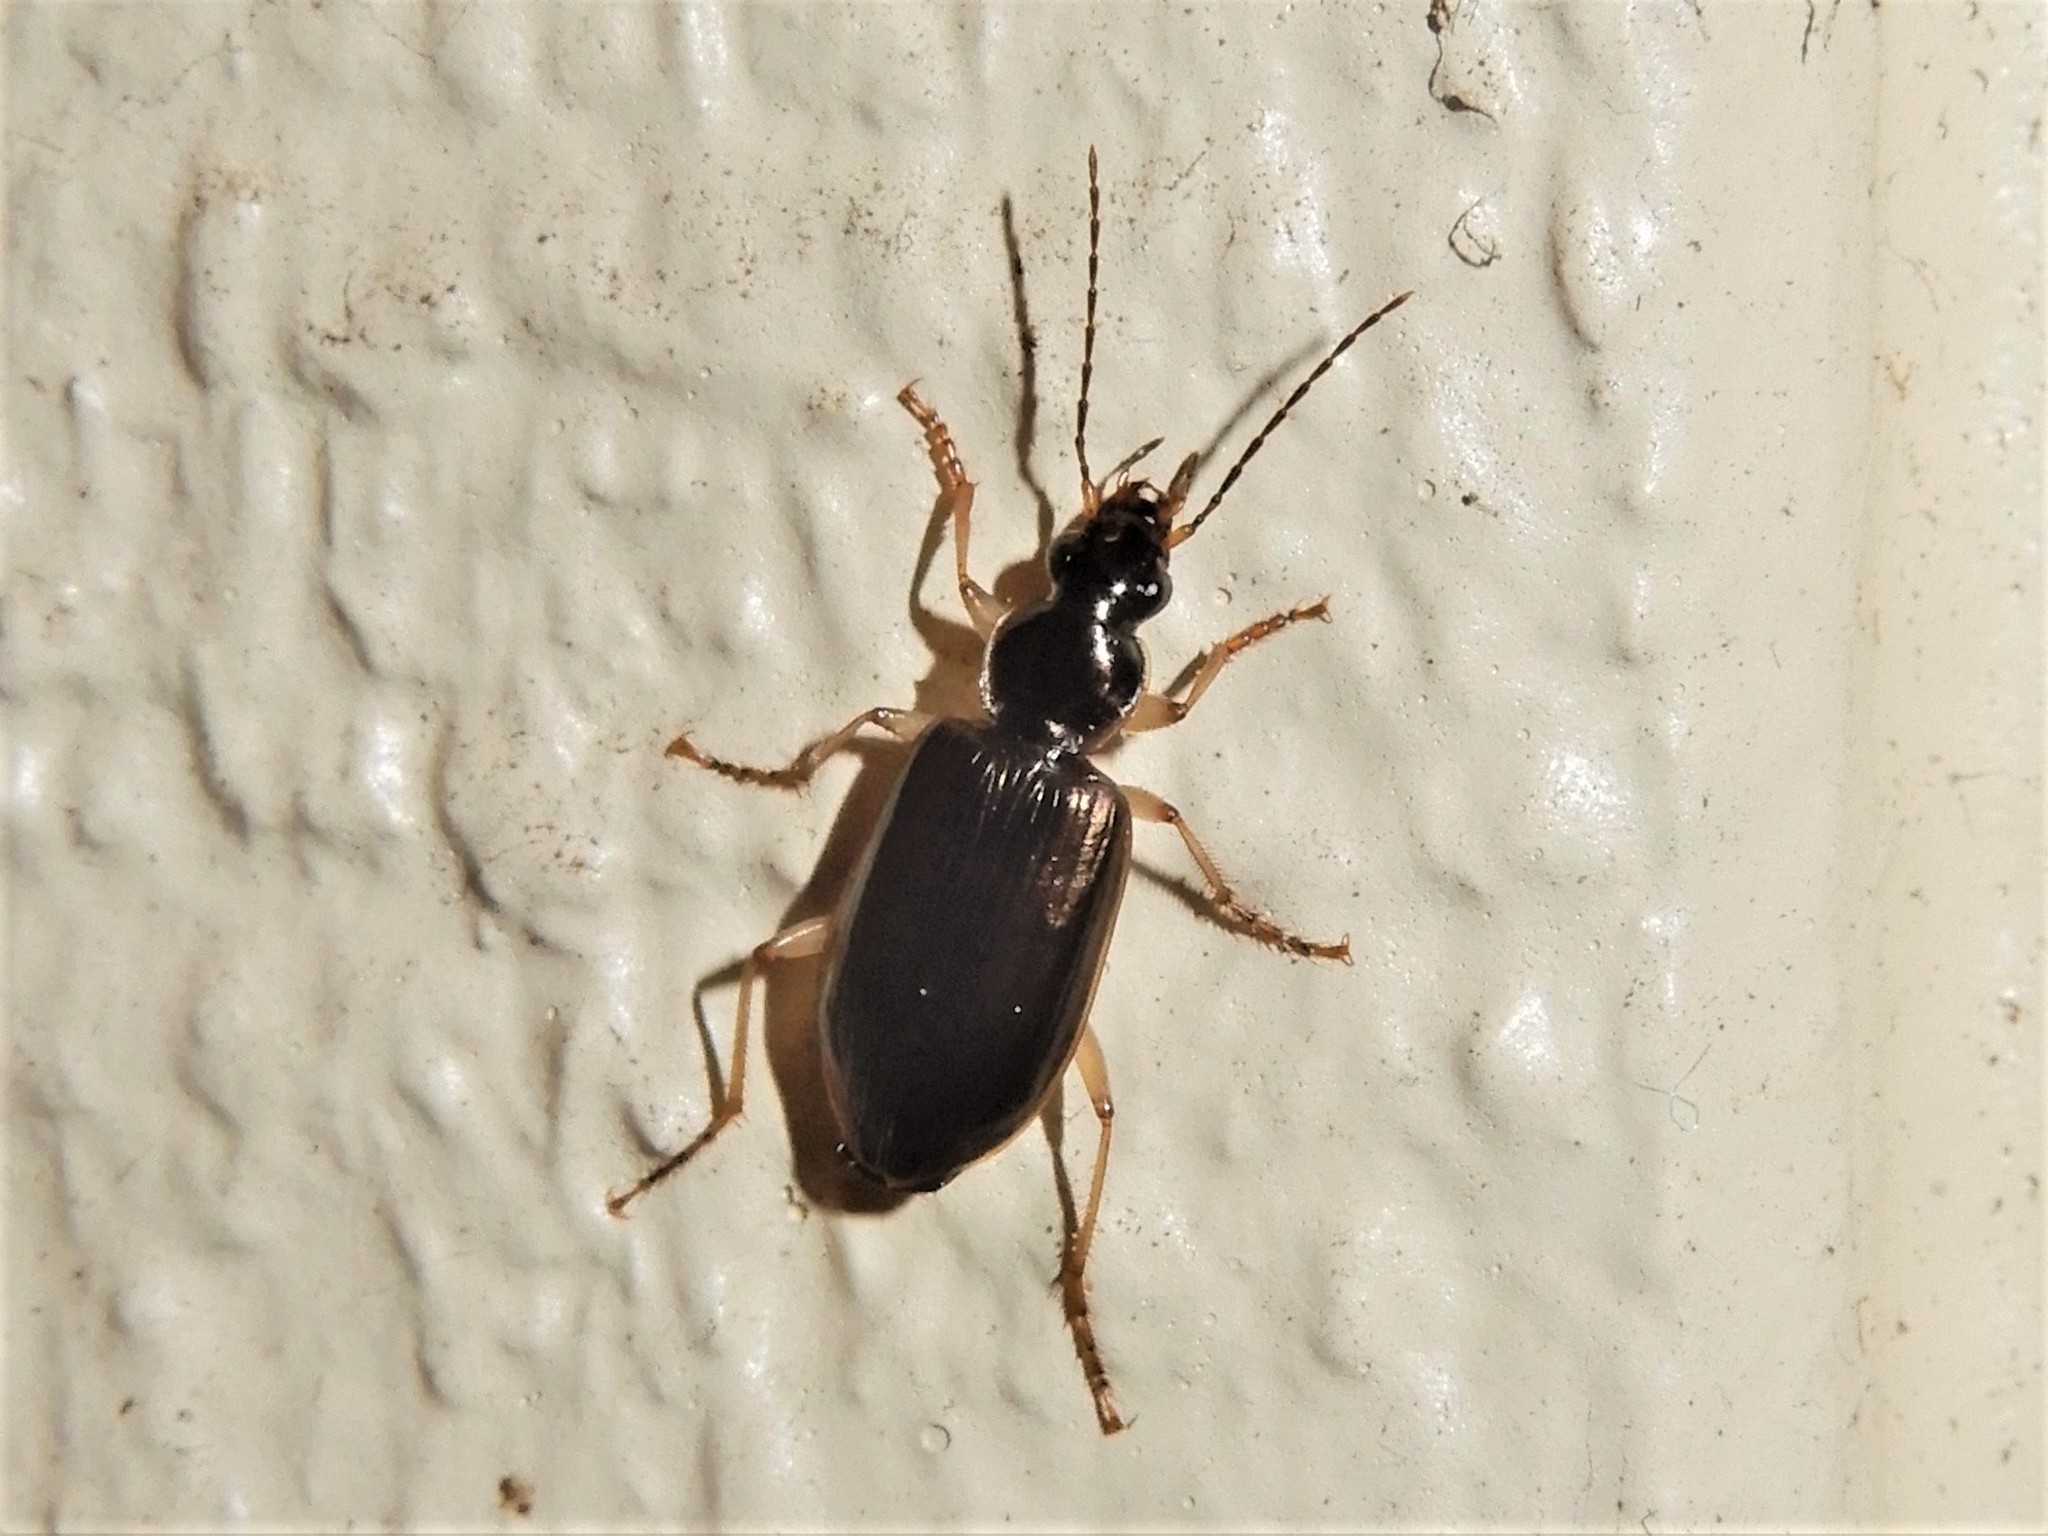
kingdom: Animalia
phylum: Arthropoda
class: Insecta
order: Coleoptera
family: Carabidae
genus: Notagonum
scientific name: Notagonum submetallicum
